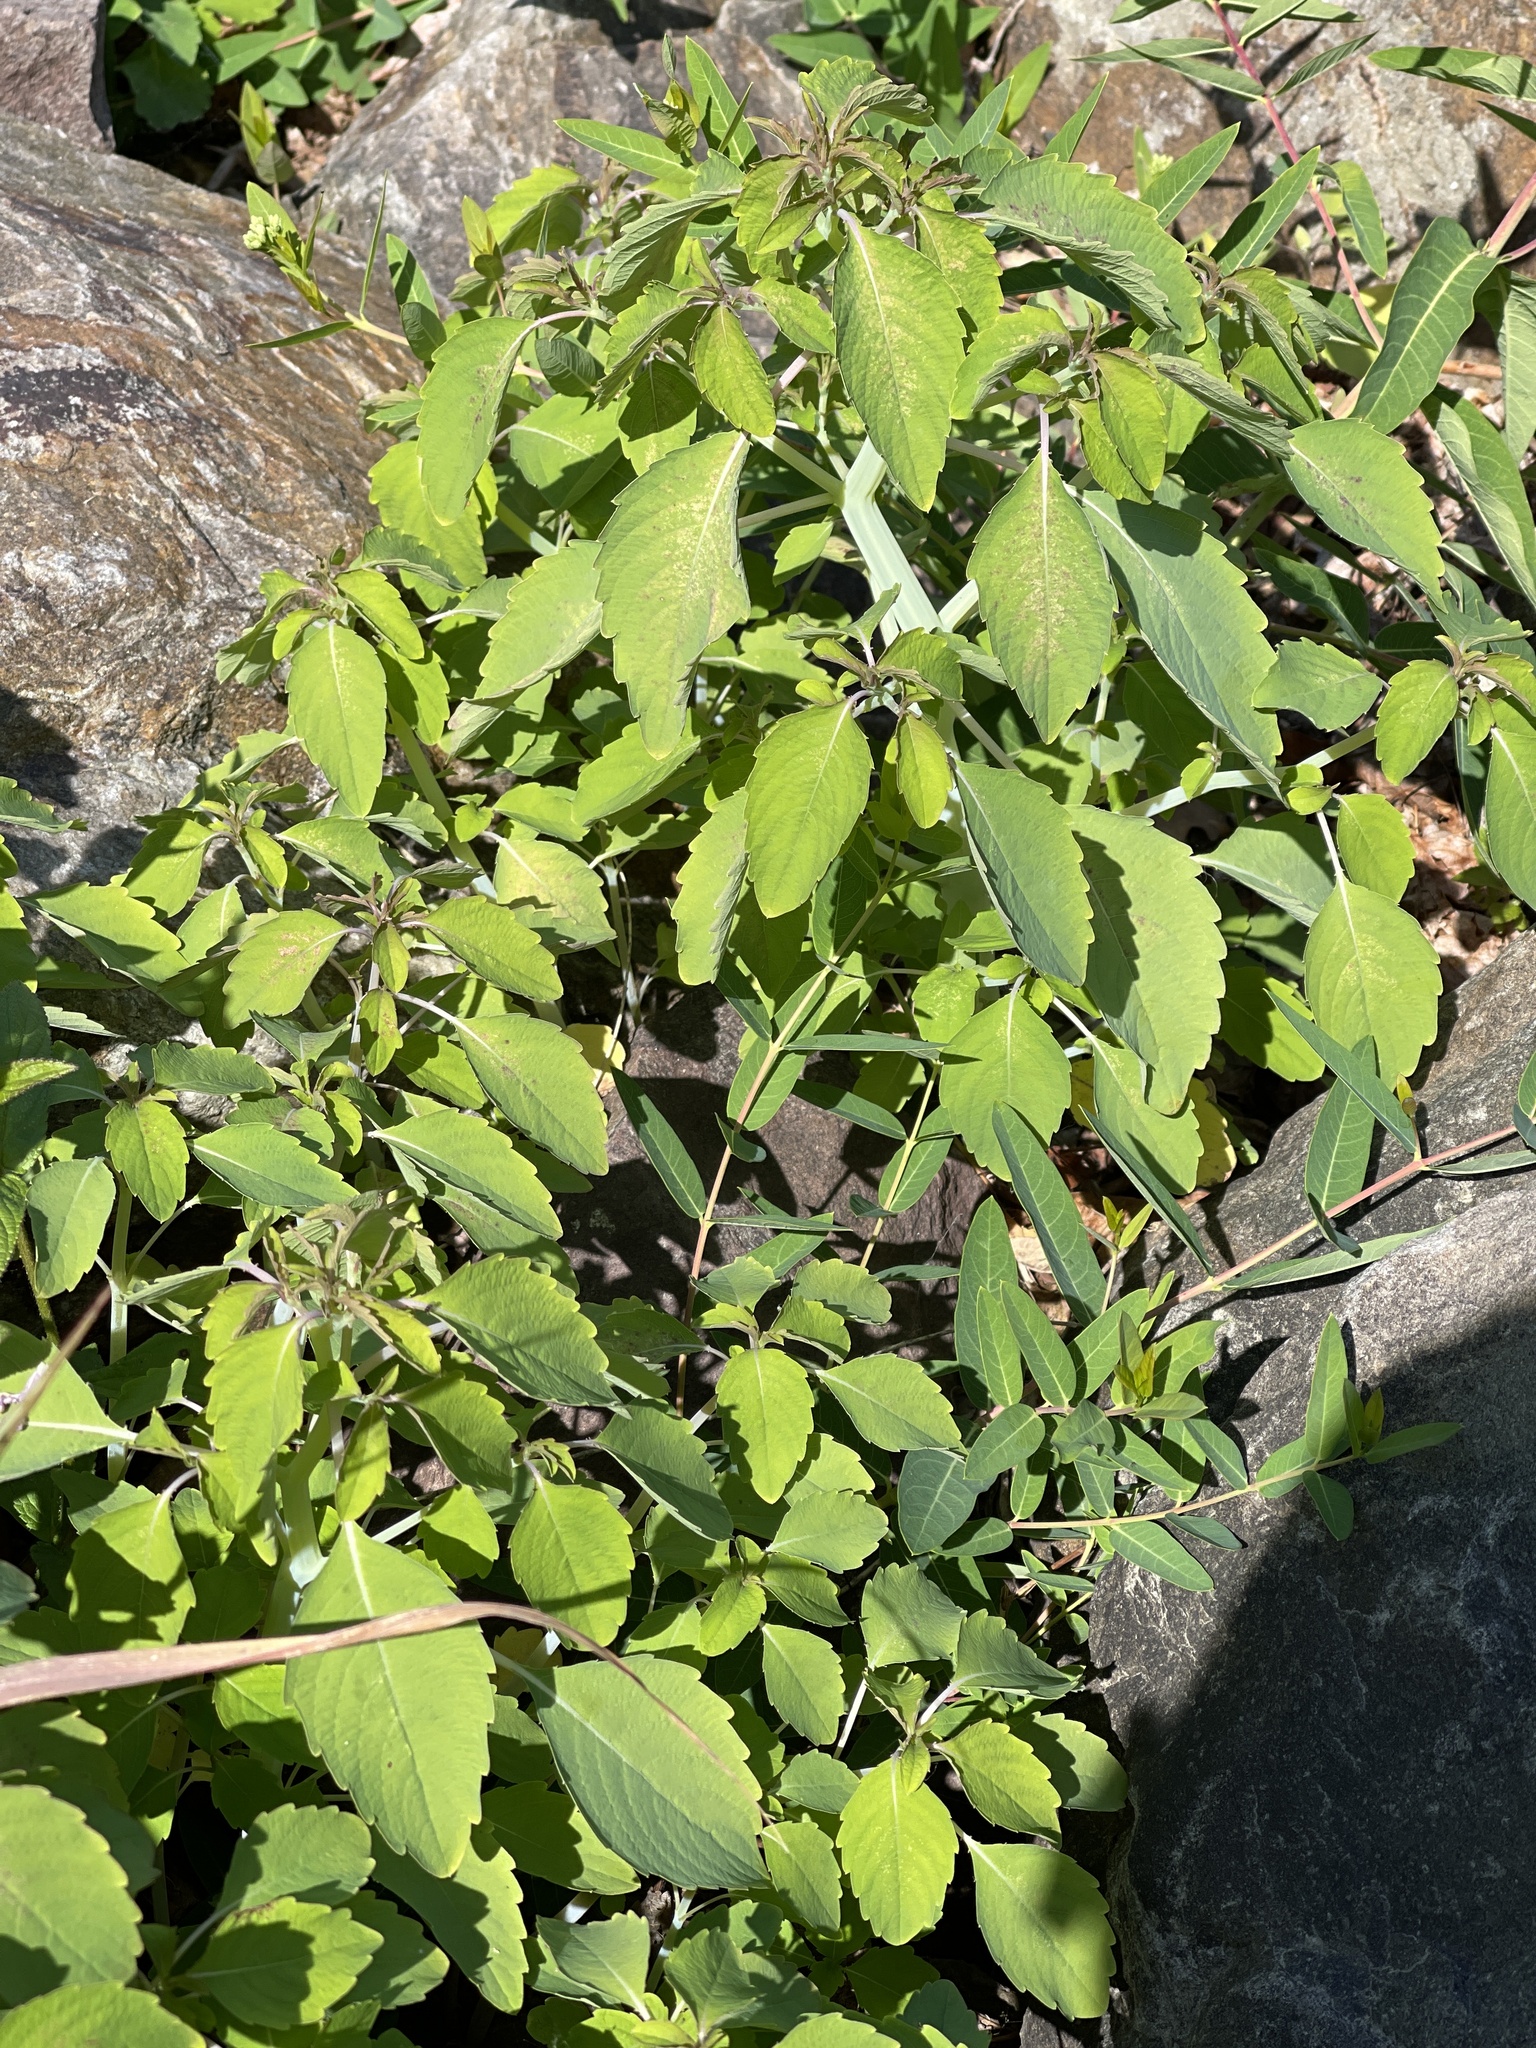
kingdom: Plantae
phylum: Tracheophyta
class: Magnoliopsida
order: Ericales
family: Balsaminaceae
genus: Impatiens
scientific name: Impatiens
